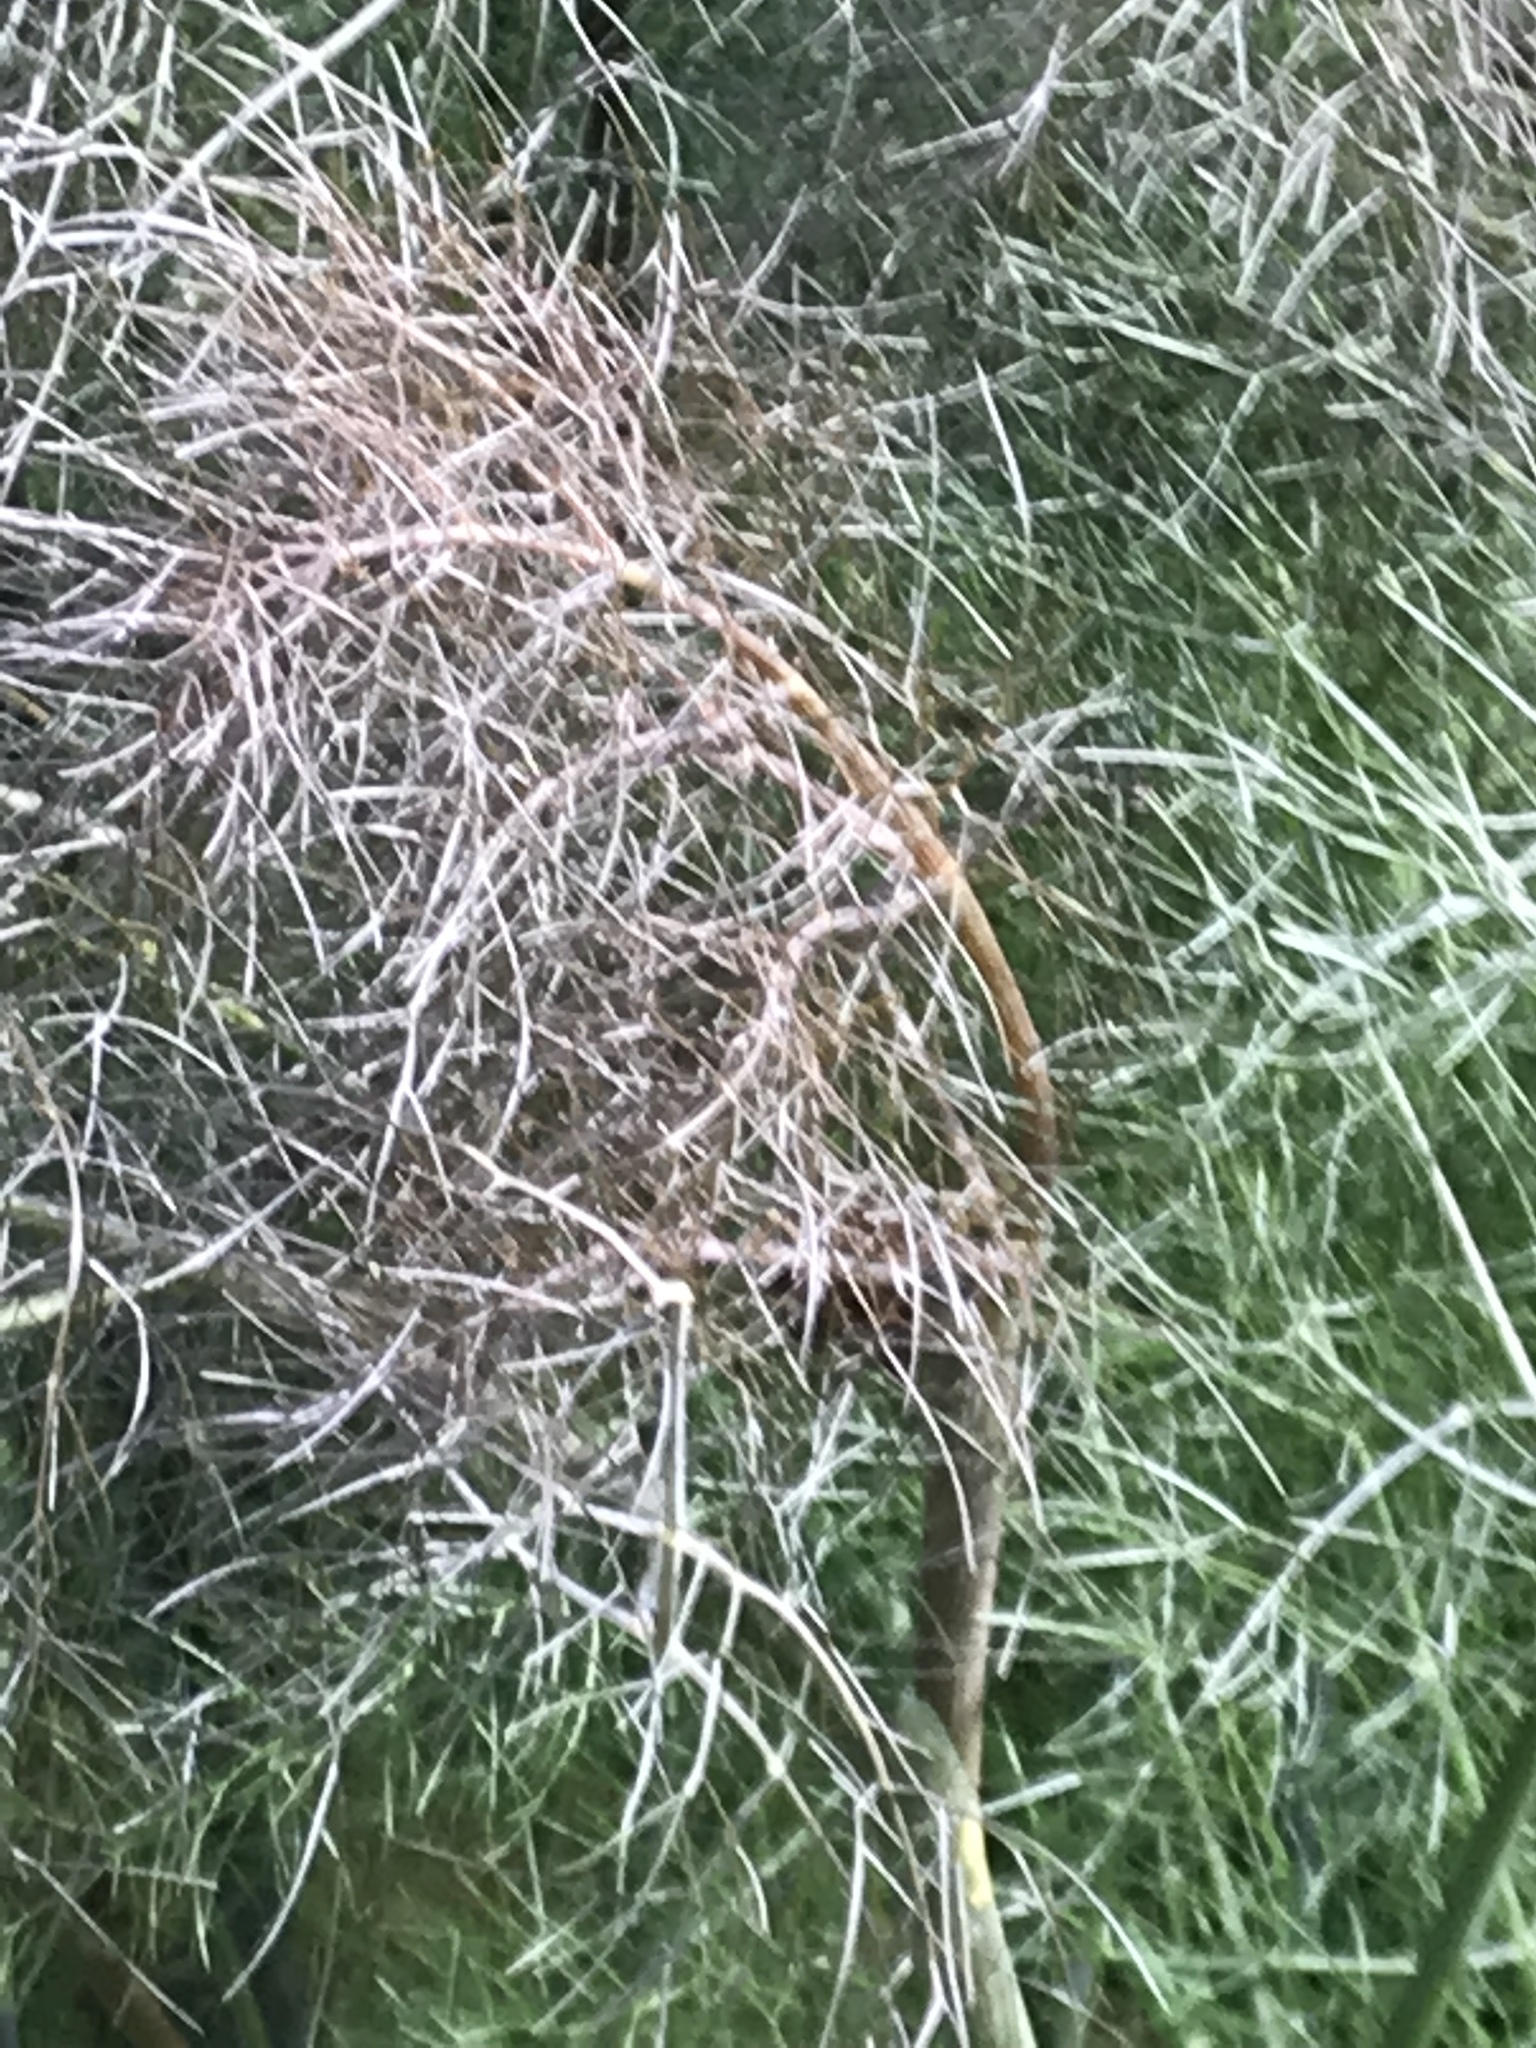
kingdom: Plantae
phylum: Tracheophyta
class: Magnoliopsida
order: Apiales
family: Apiaceae
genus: Foeniculum
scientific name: Foeniculum vulgare
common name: Fennel
